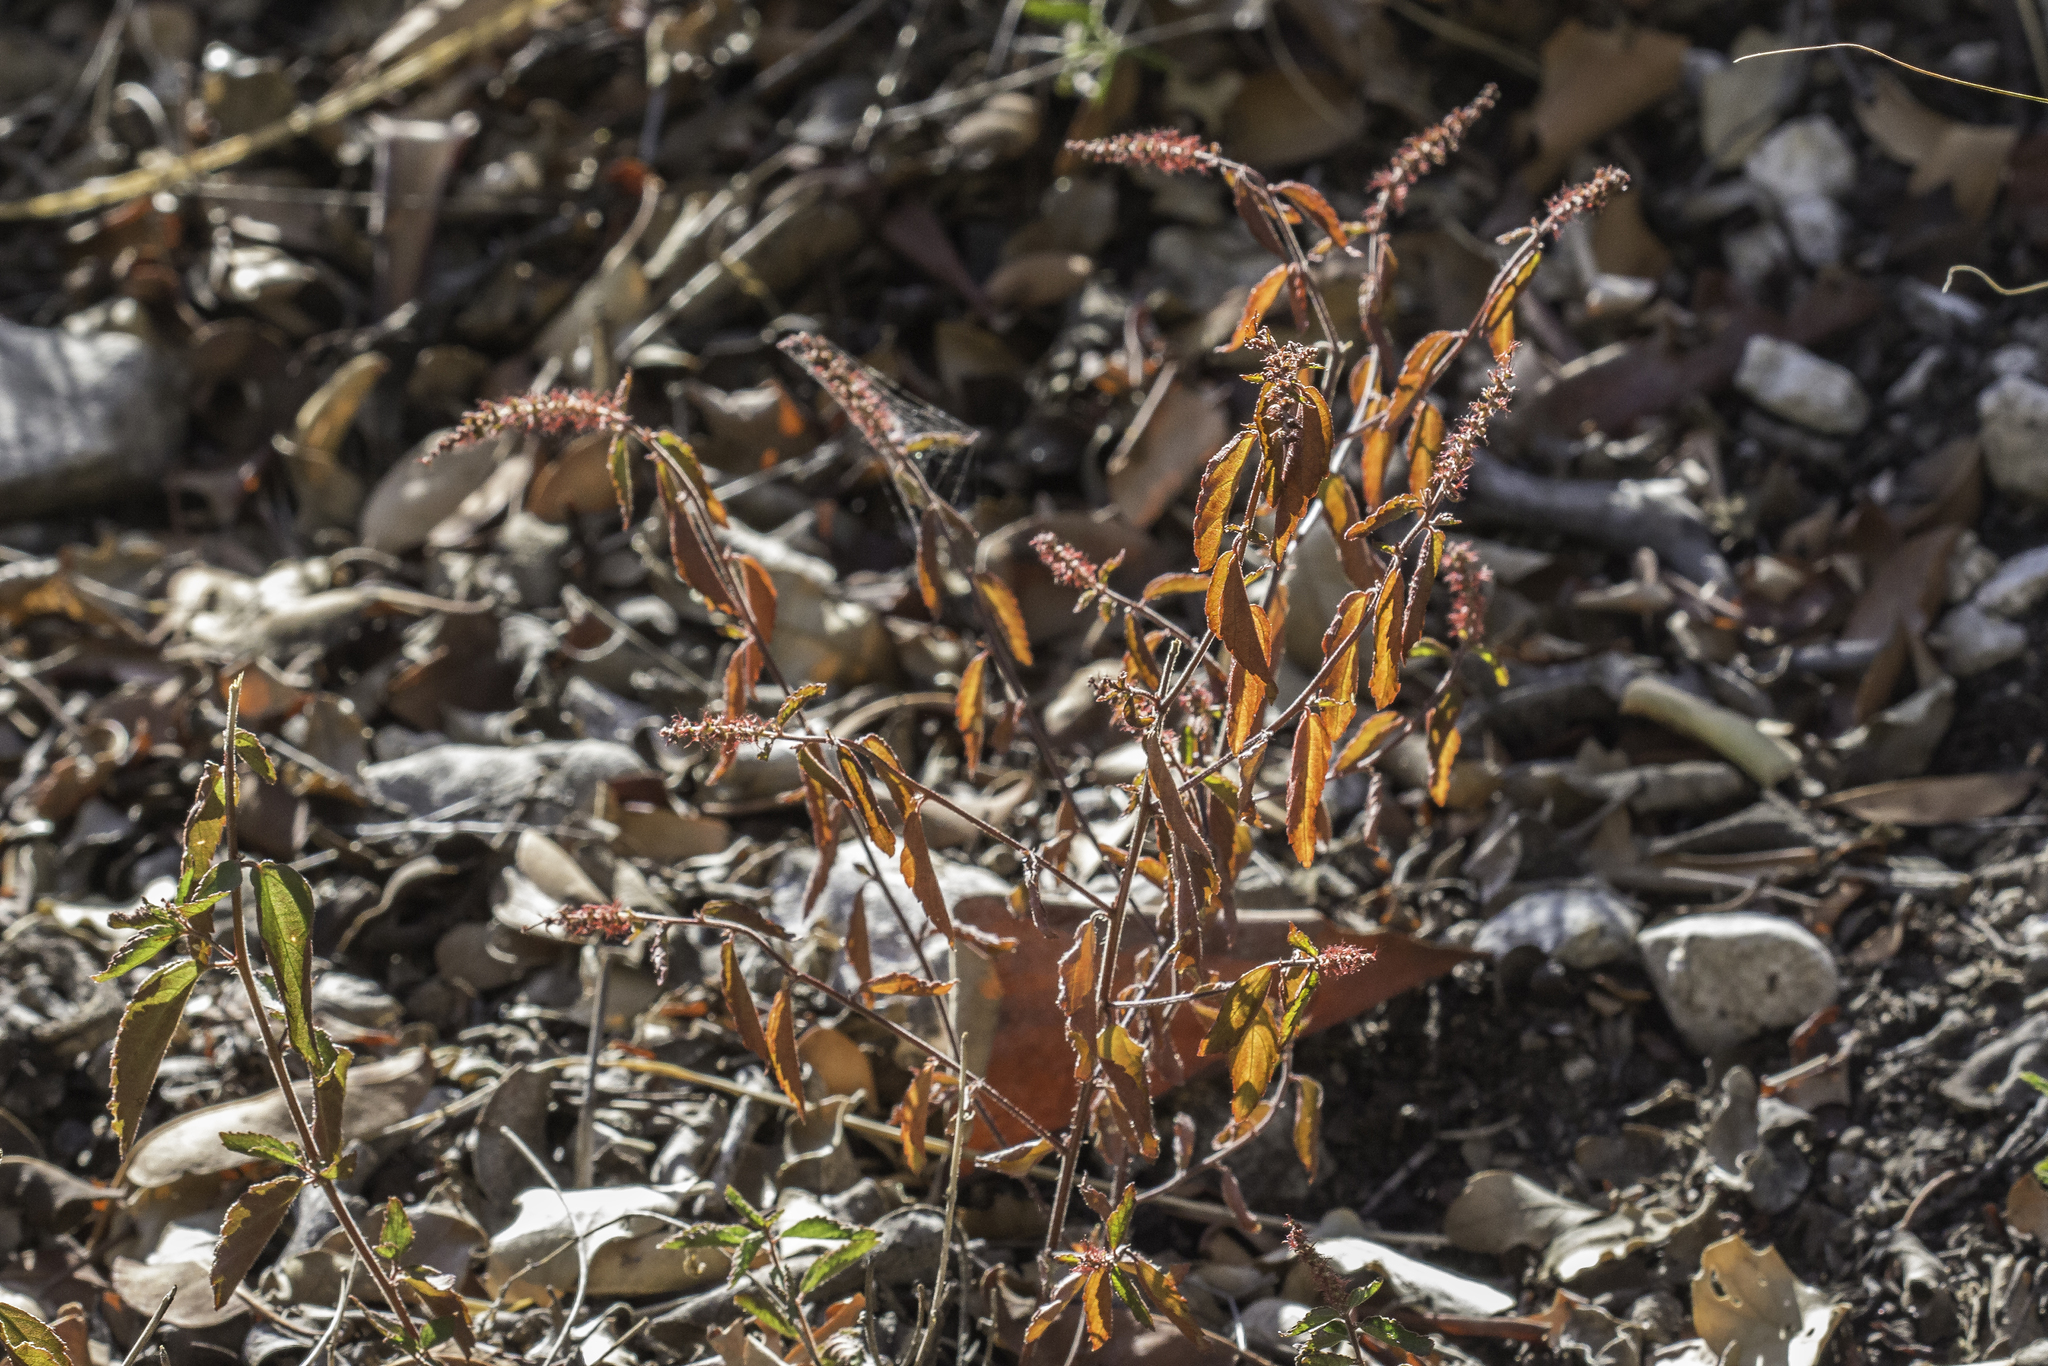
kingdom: Plantae
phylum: Tracheophyta
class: Magnoliopsida
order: Malpighiales
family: Euphorbiaceae
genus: Acalypha
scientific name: Acalypha phleoides
